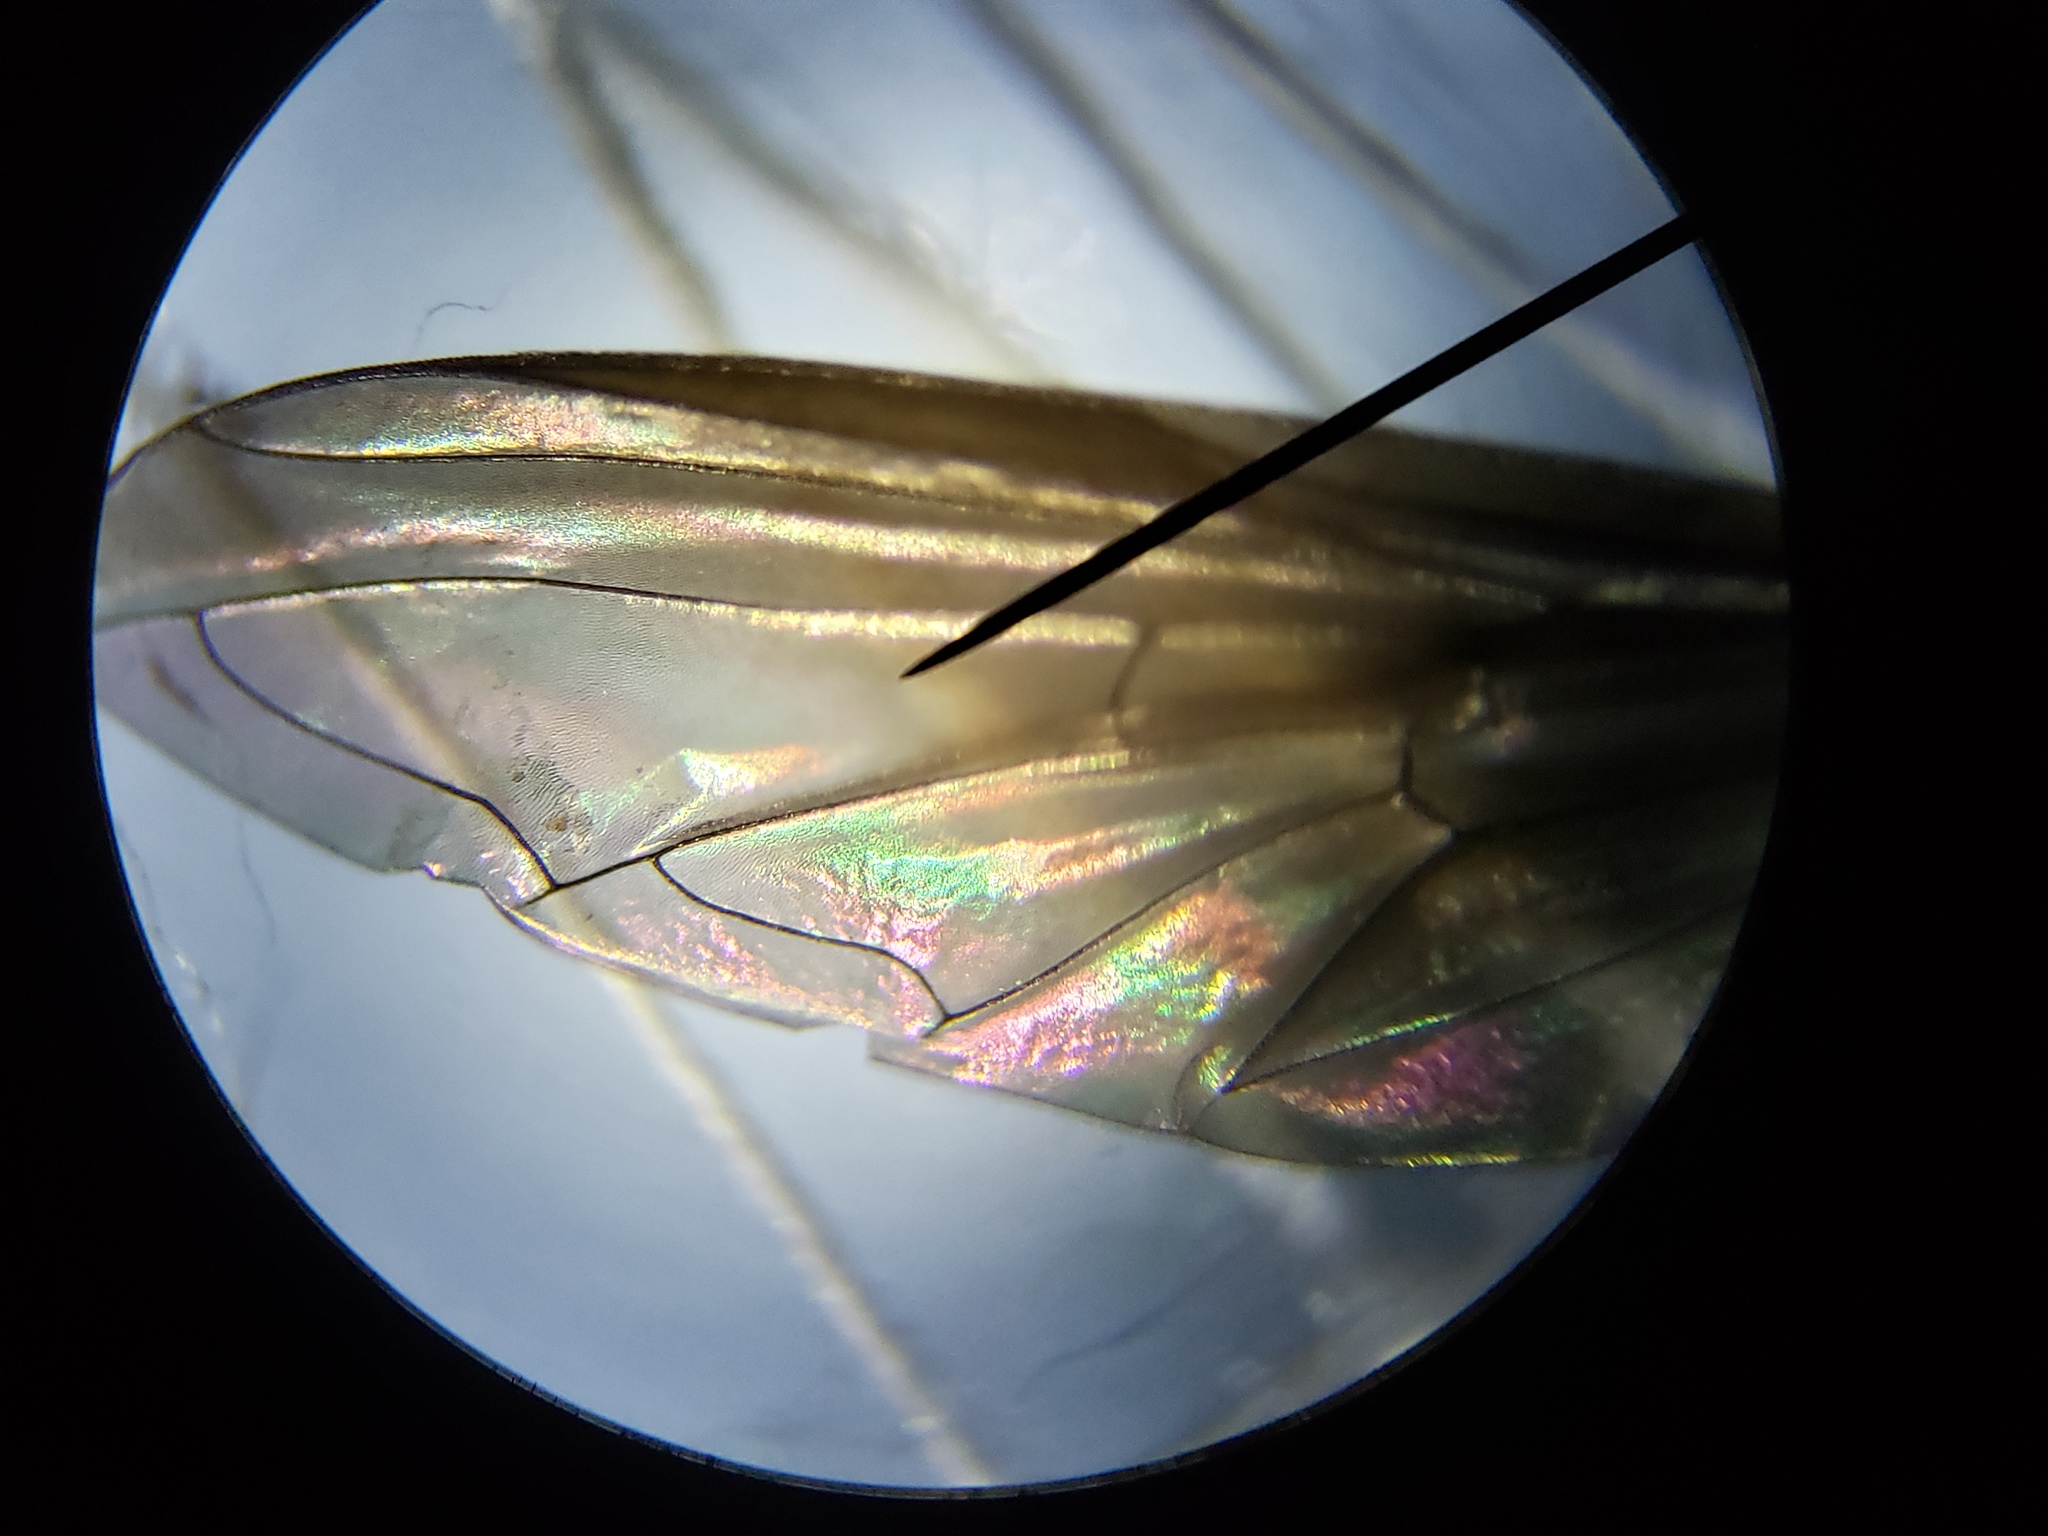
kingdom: Animalia
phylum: Arthropoda
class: Insecta
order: Diptera
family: Syrphidae
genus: Ocyptamus
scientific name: Ocyptamus antiphates
